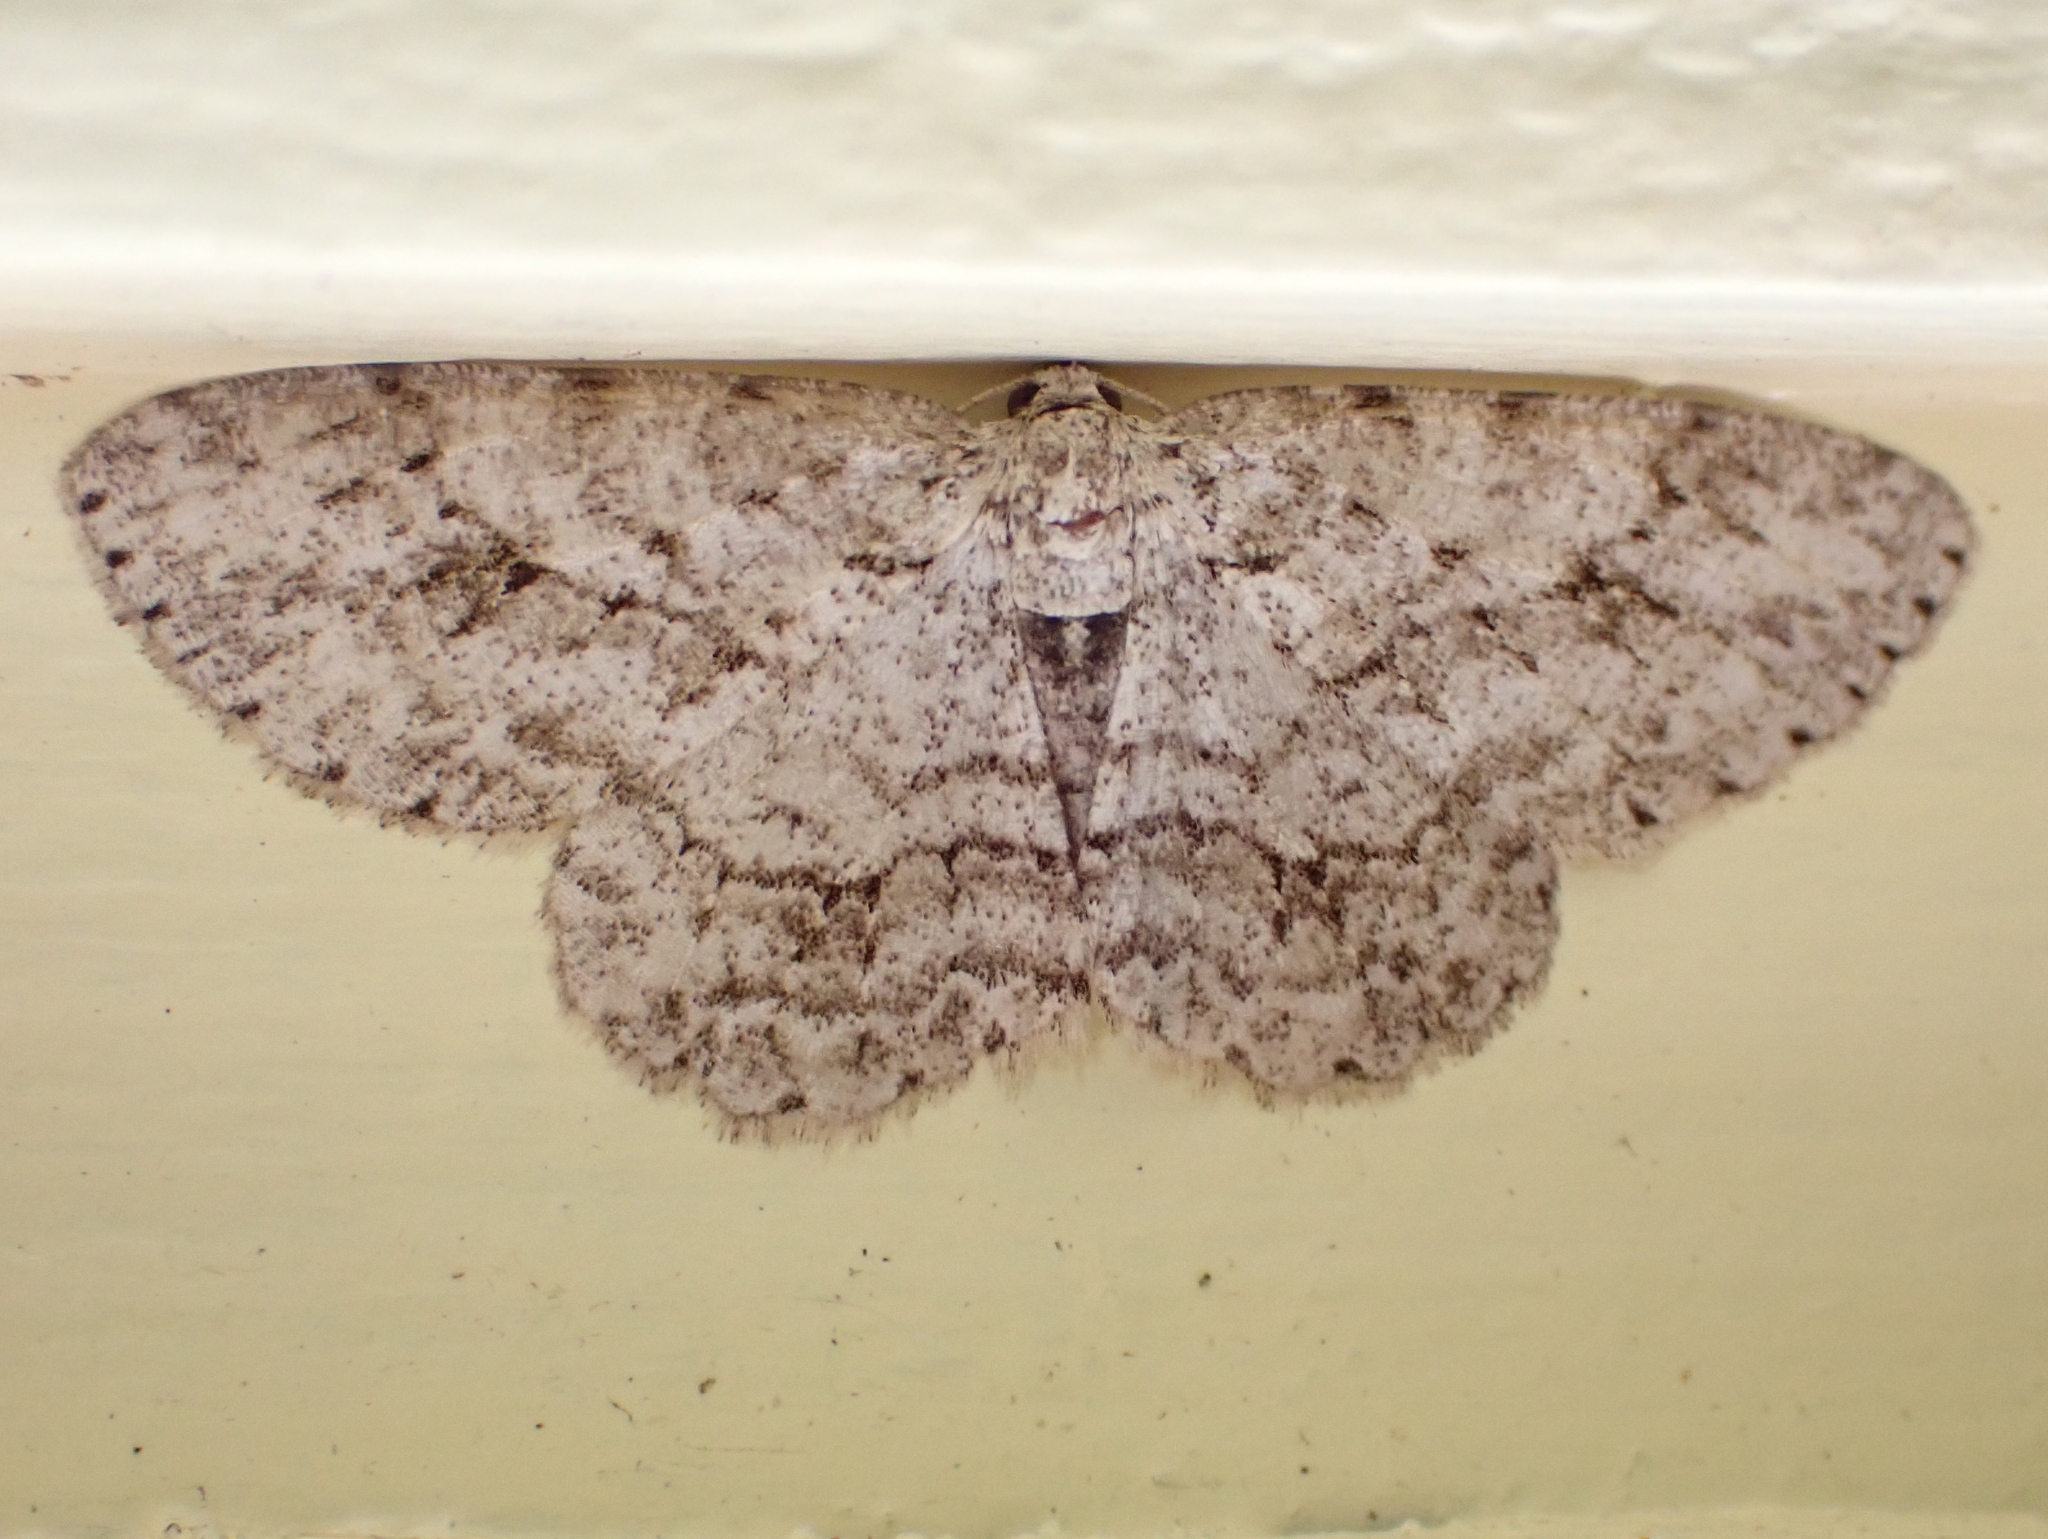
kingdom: Animalia
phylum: Arthropoda
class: Insecta
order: Lepidoptera
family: Geometridae
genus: Ectropis
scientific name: Ectropis crepuscularia
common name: Engrailed
